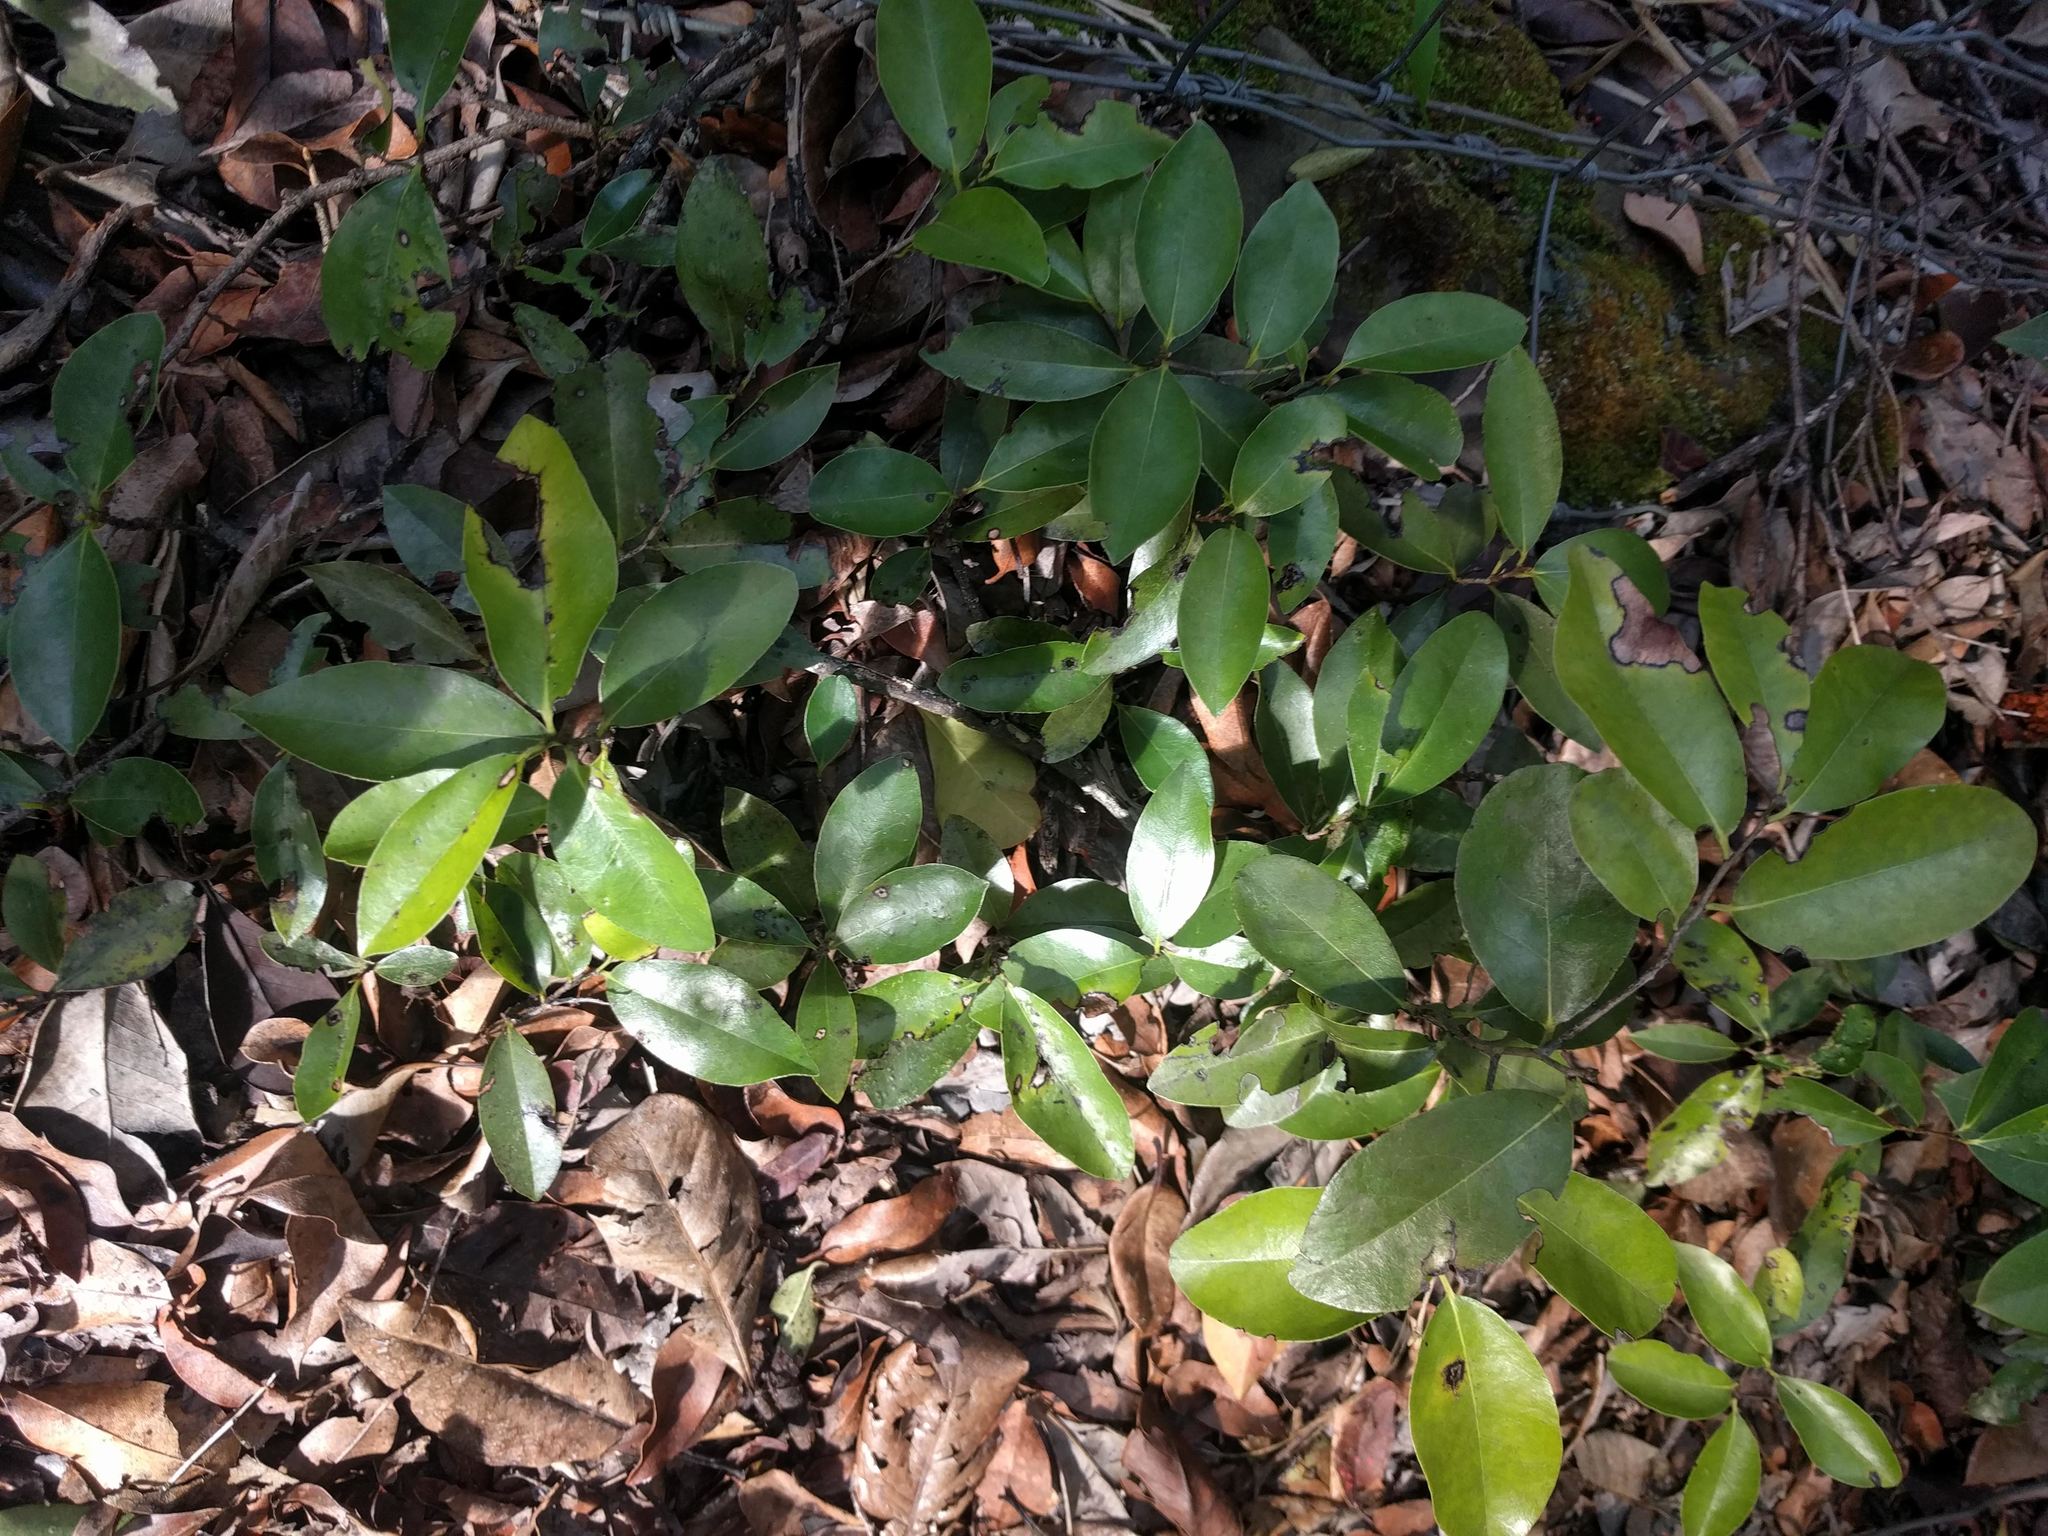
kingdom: Plantae
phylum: Tracheophyta
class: Magnoliopsida
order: Ericales
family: Ebenaceae
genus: Diospyros
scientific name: Diospyros sandwicensis
